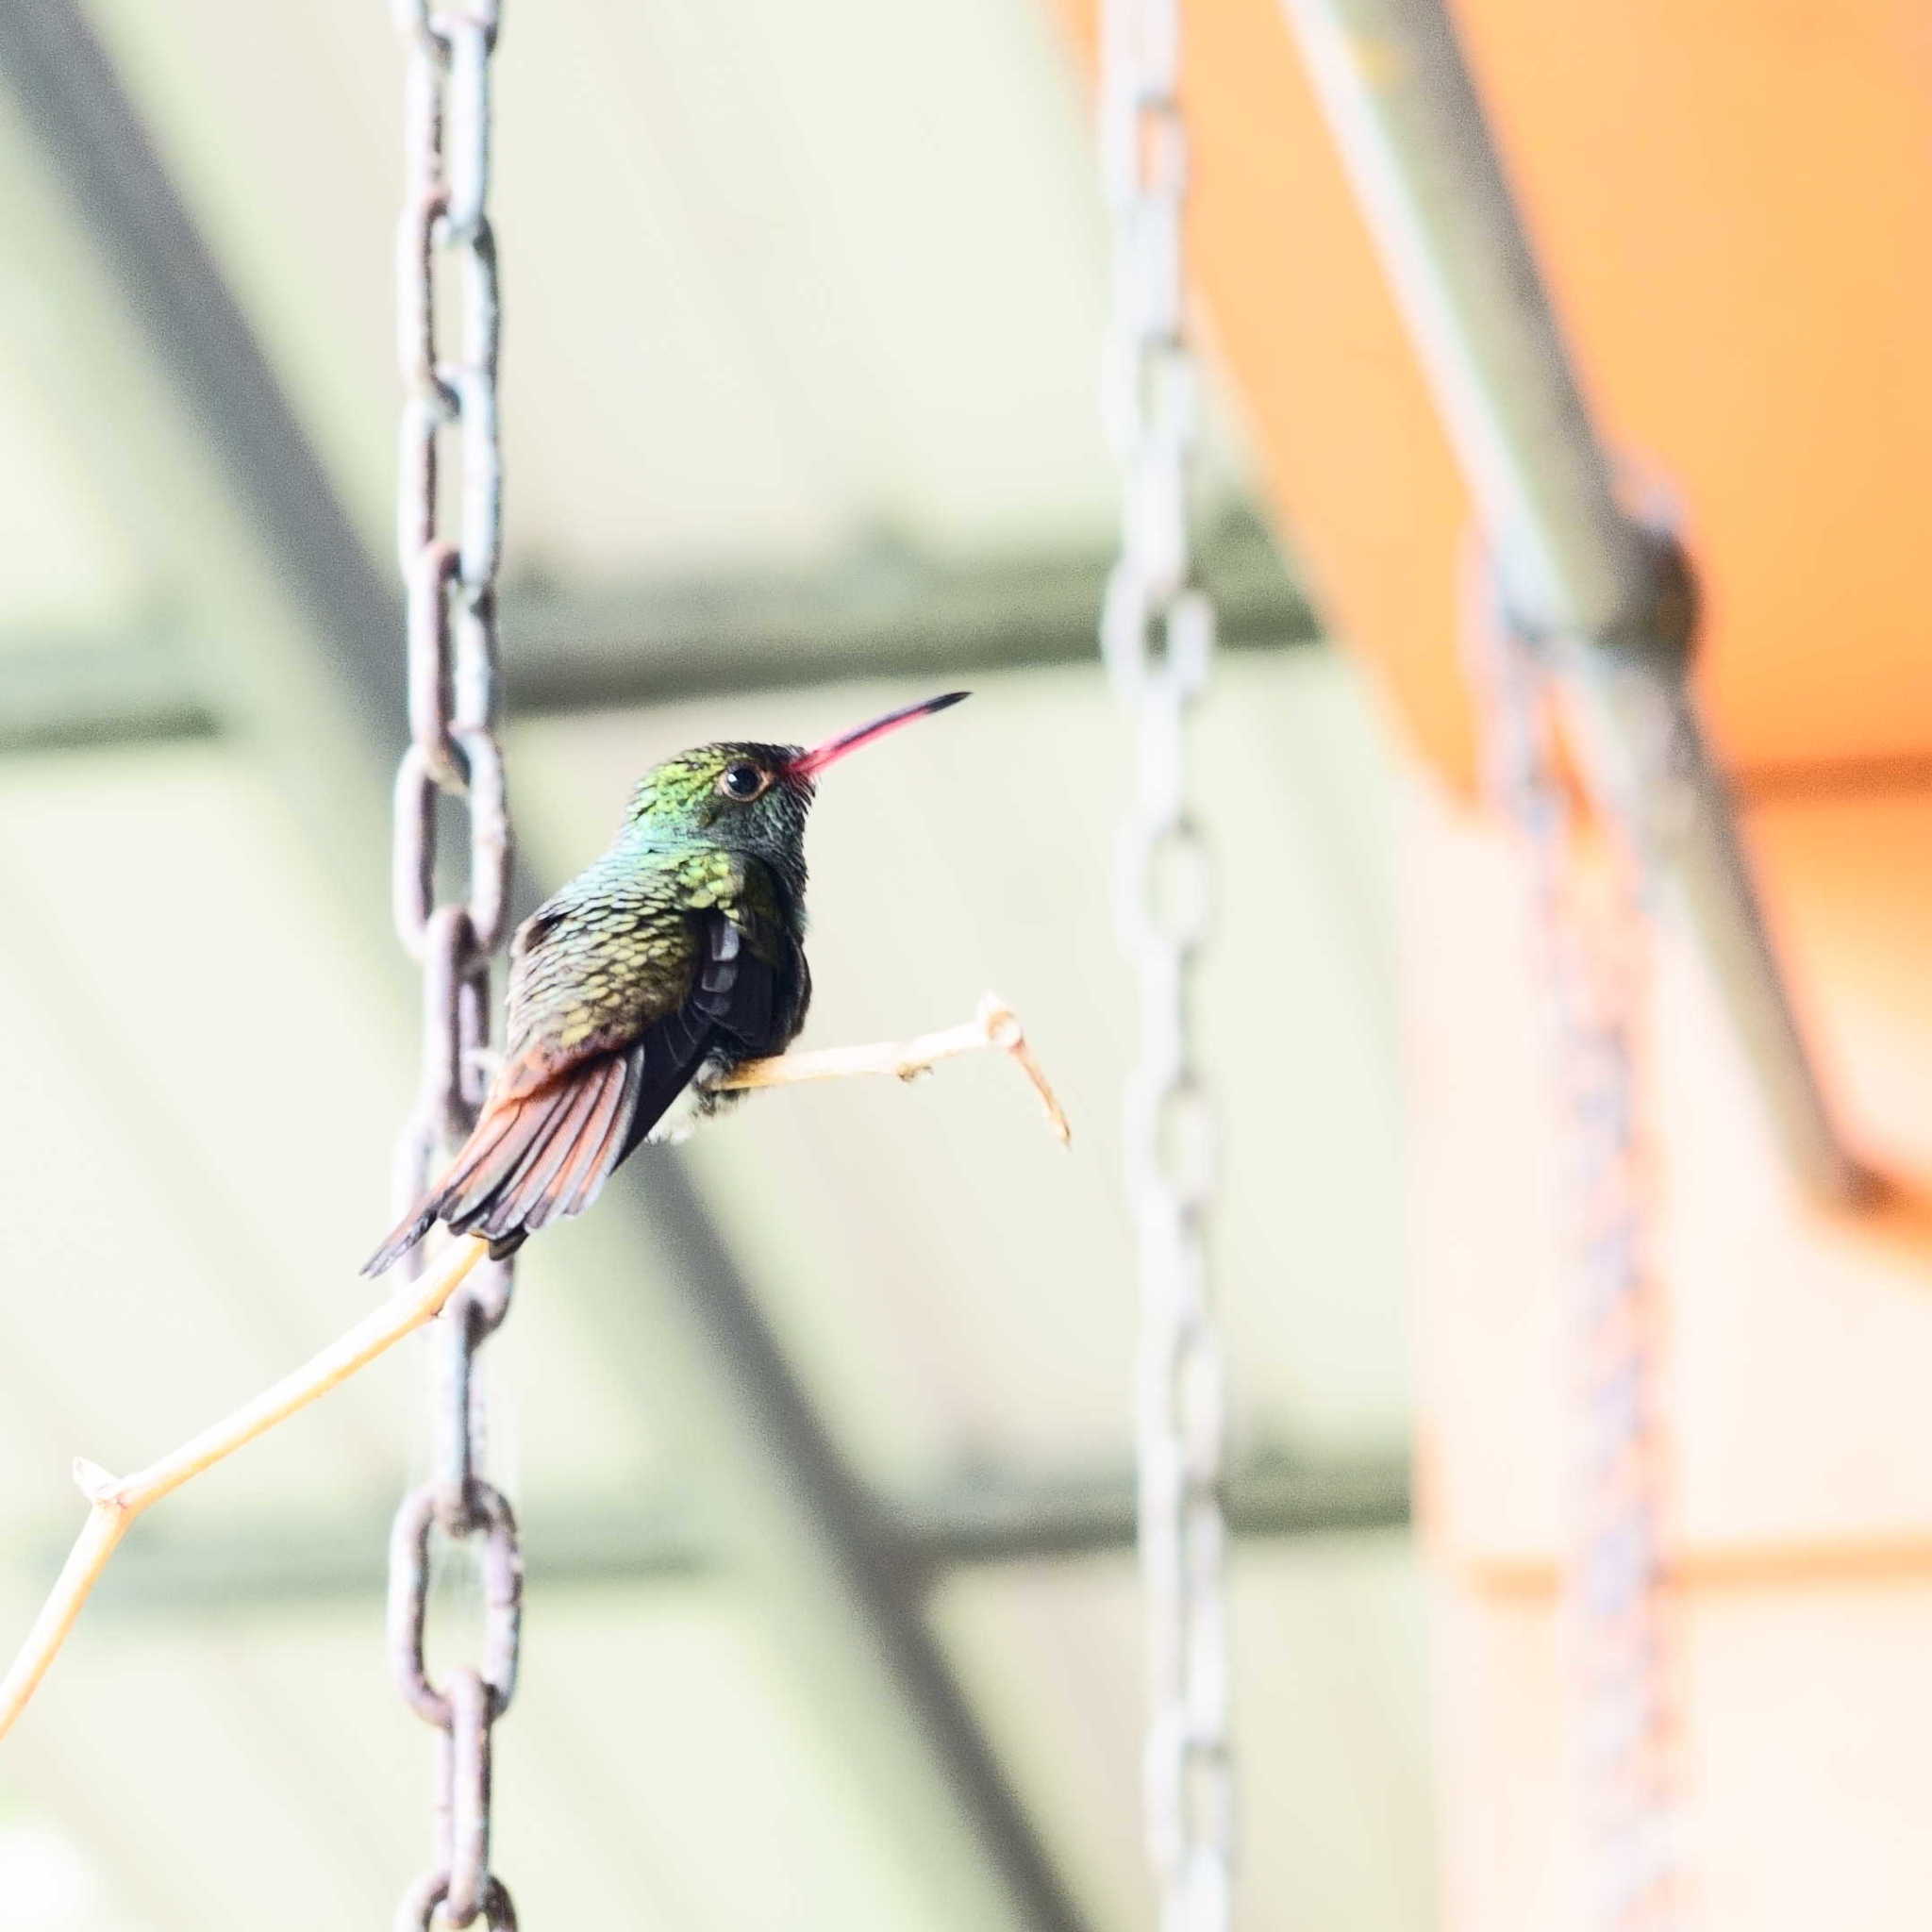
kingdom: Animalia
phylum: Chordata
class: Aves
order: Apodiformes
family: Trochilidae
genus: Amazilia
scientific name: Amazilia tzacatl
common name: Rufous-tailed hummingbird
